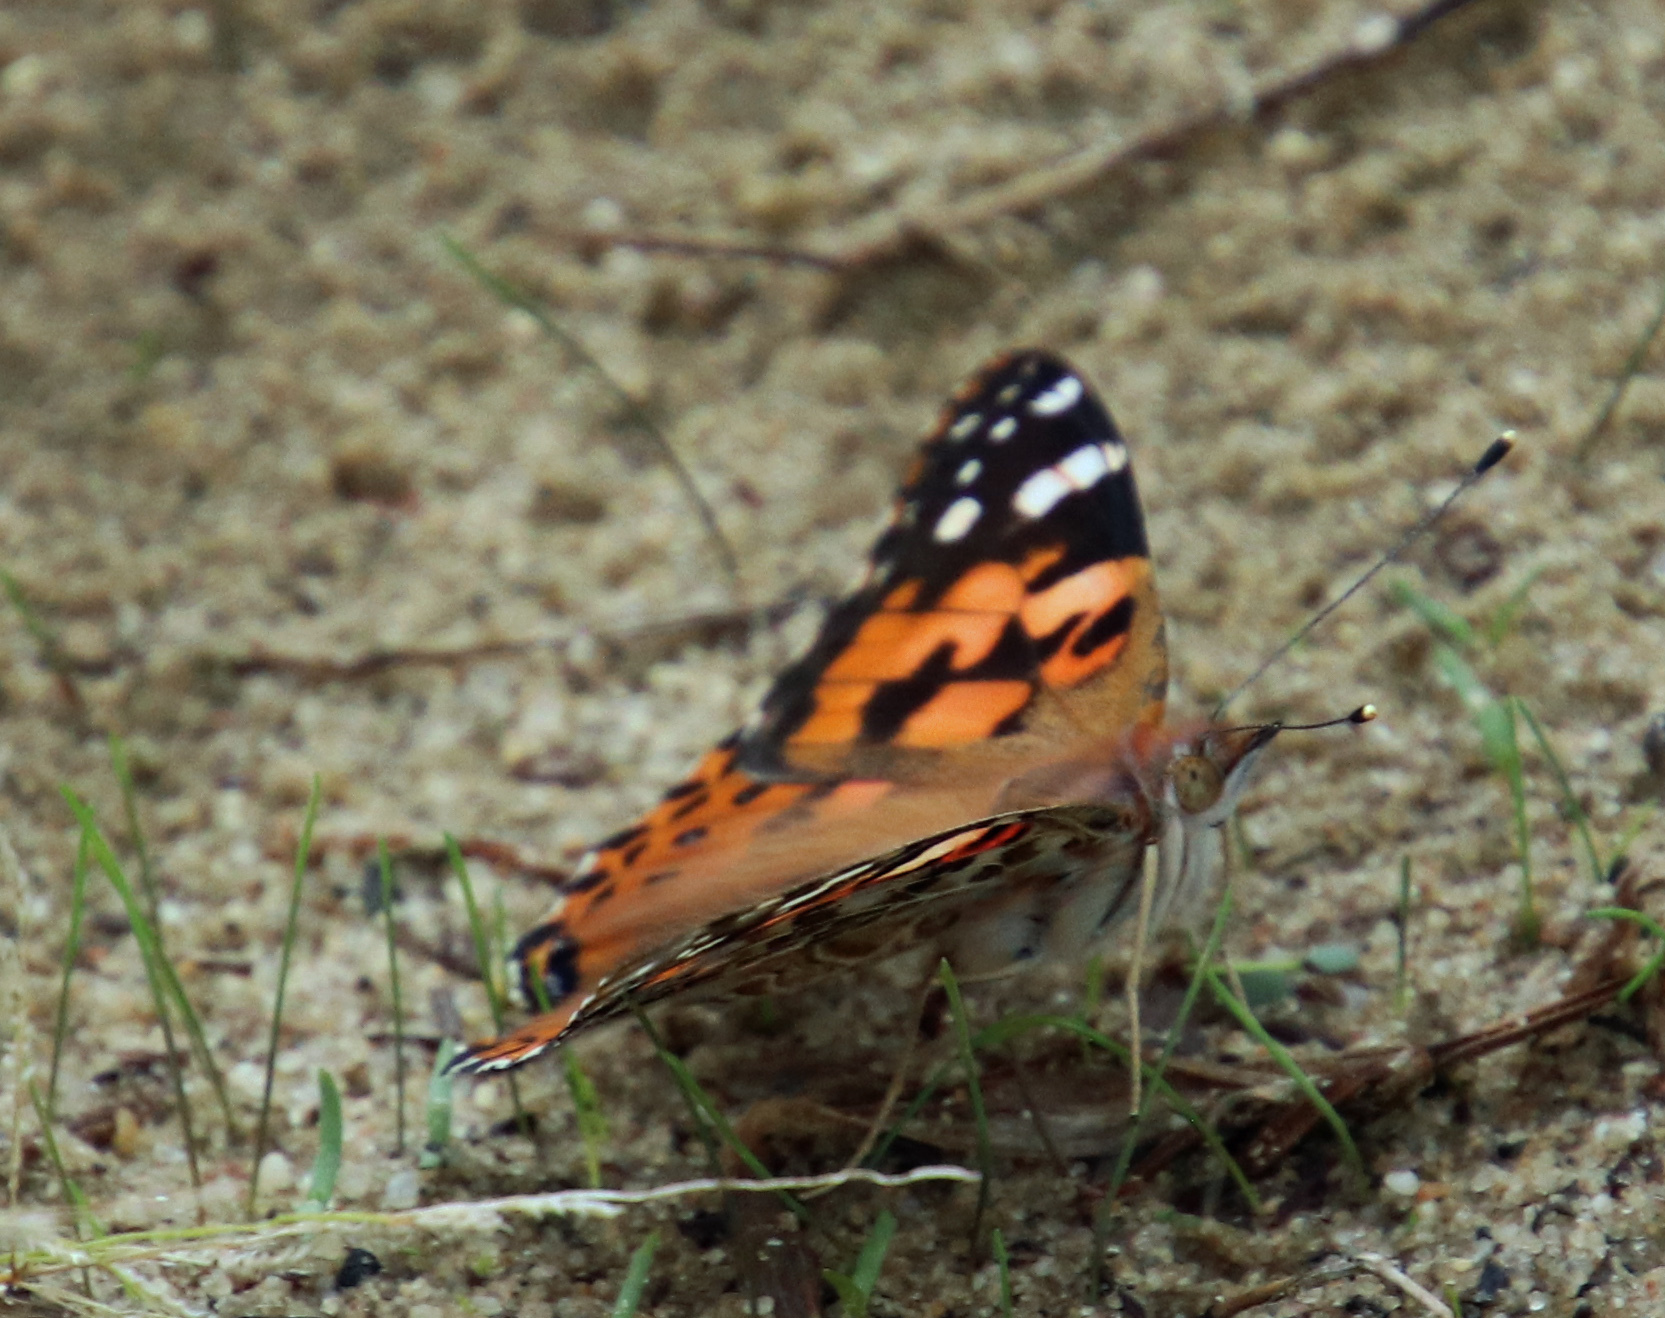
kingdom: Animalia
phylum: Arthropoda
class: Insecta
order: Lepidoptera
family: Nymphalidae
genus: Vanessa
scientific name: Vanessa cardui
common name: Painted lady
